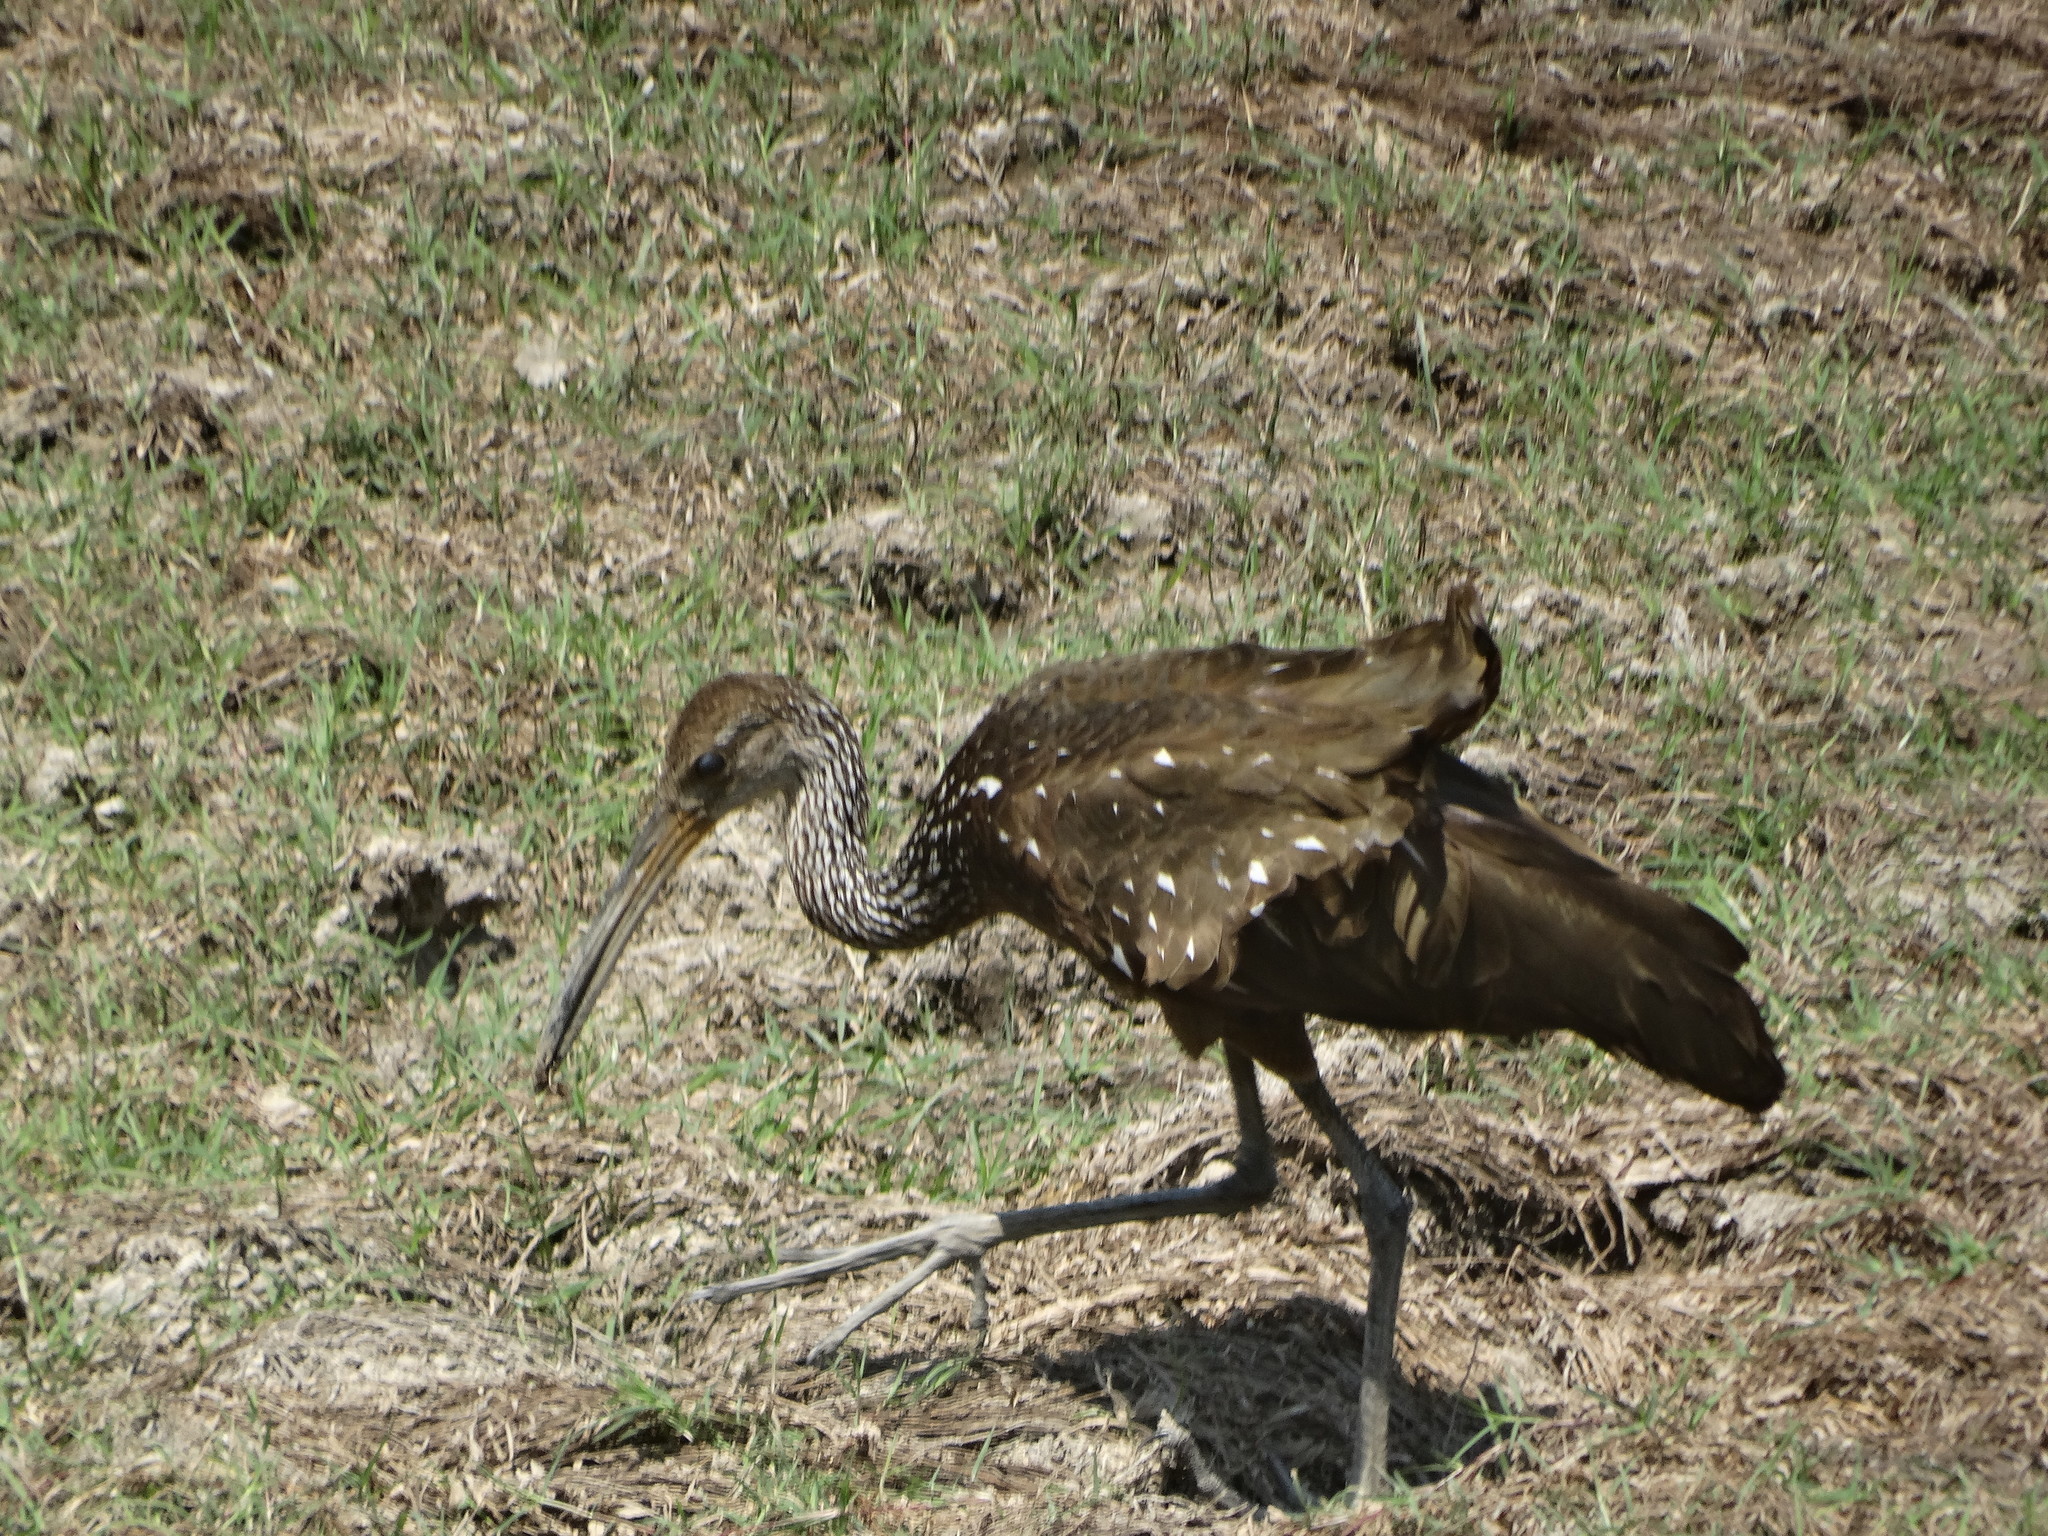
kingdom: Animalia
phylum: Chordata
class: Aves
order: Gruiformes
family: Aramidae
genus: Aramus
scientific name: Aramus guarauna
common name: Limpkin
